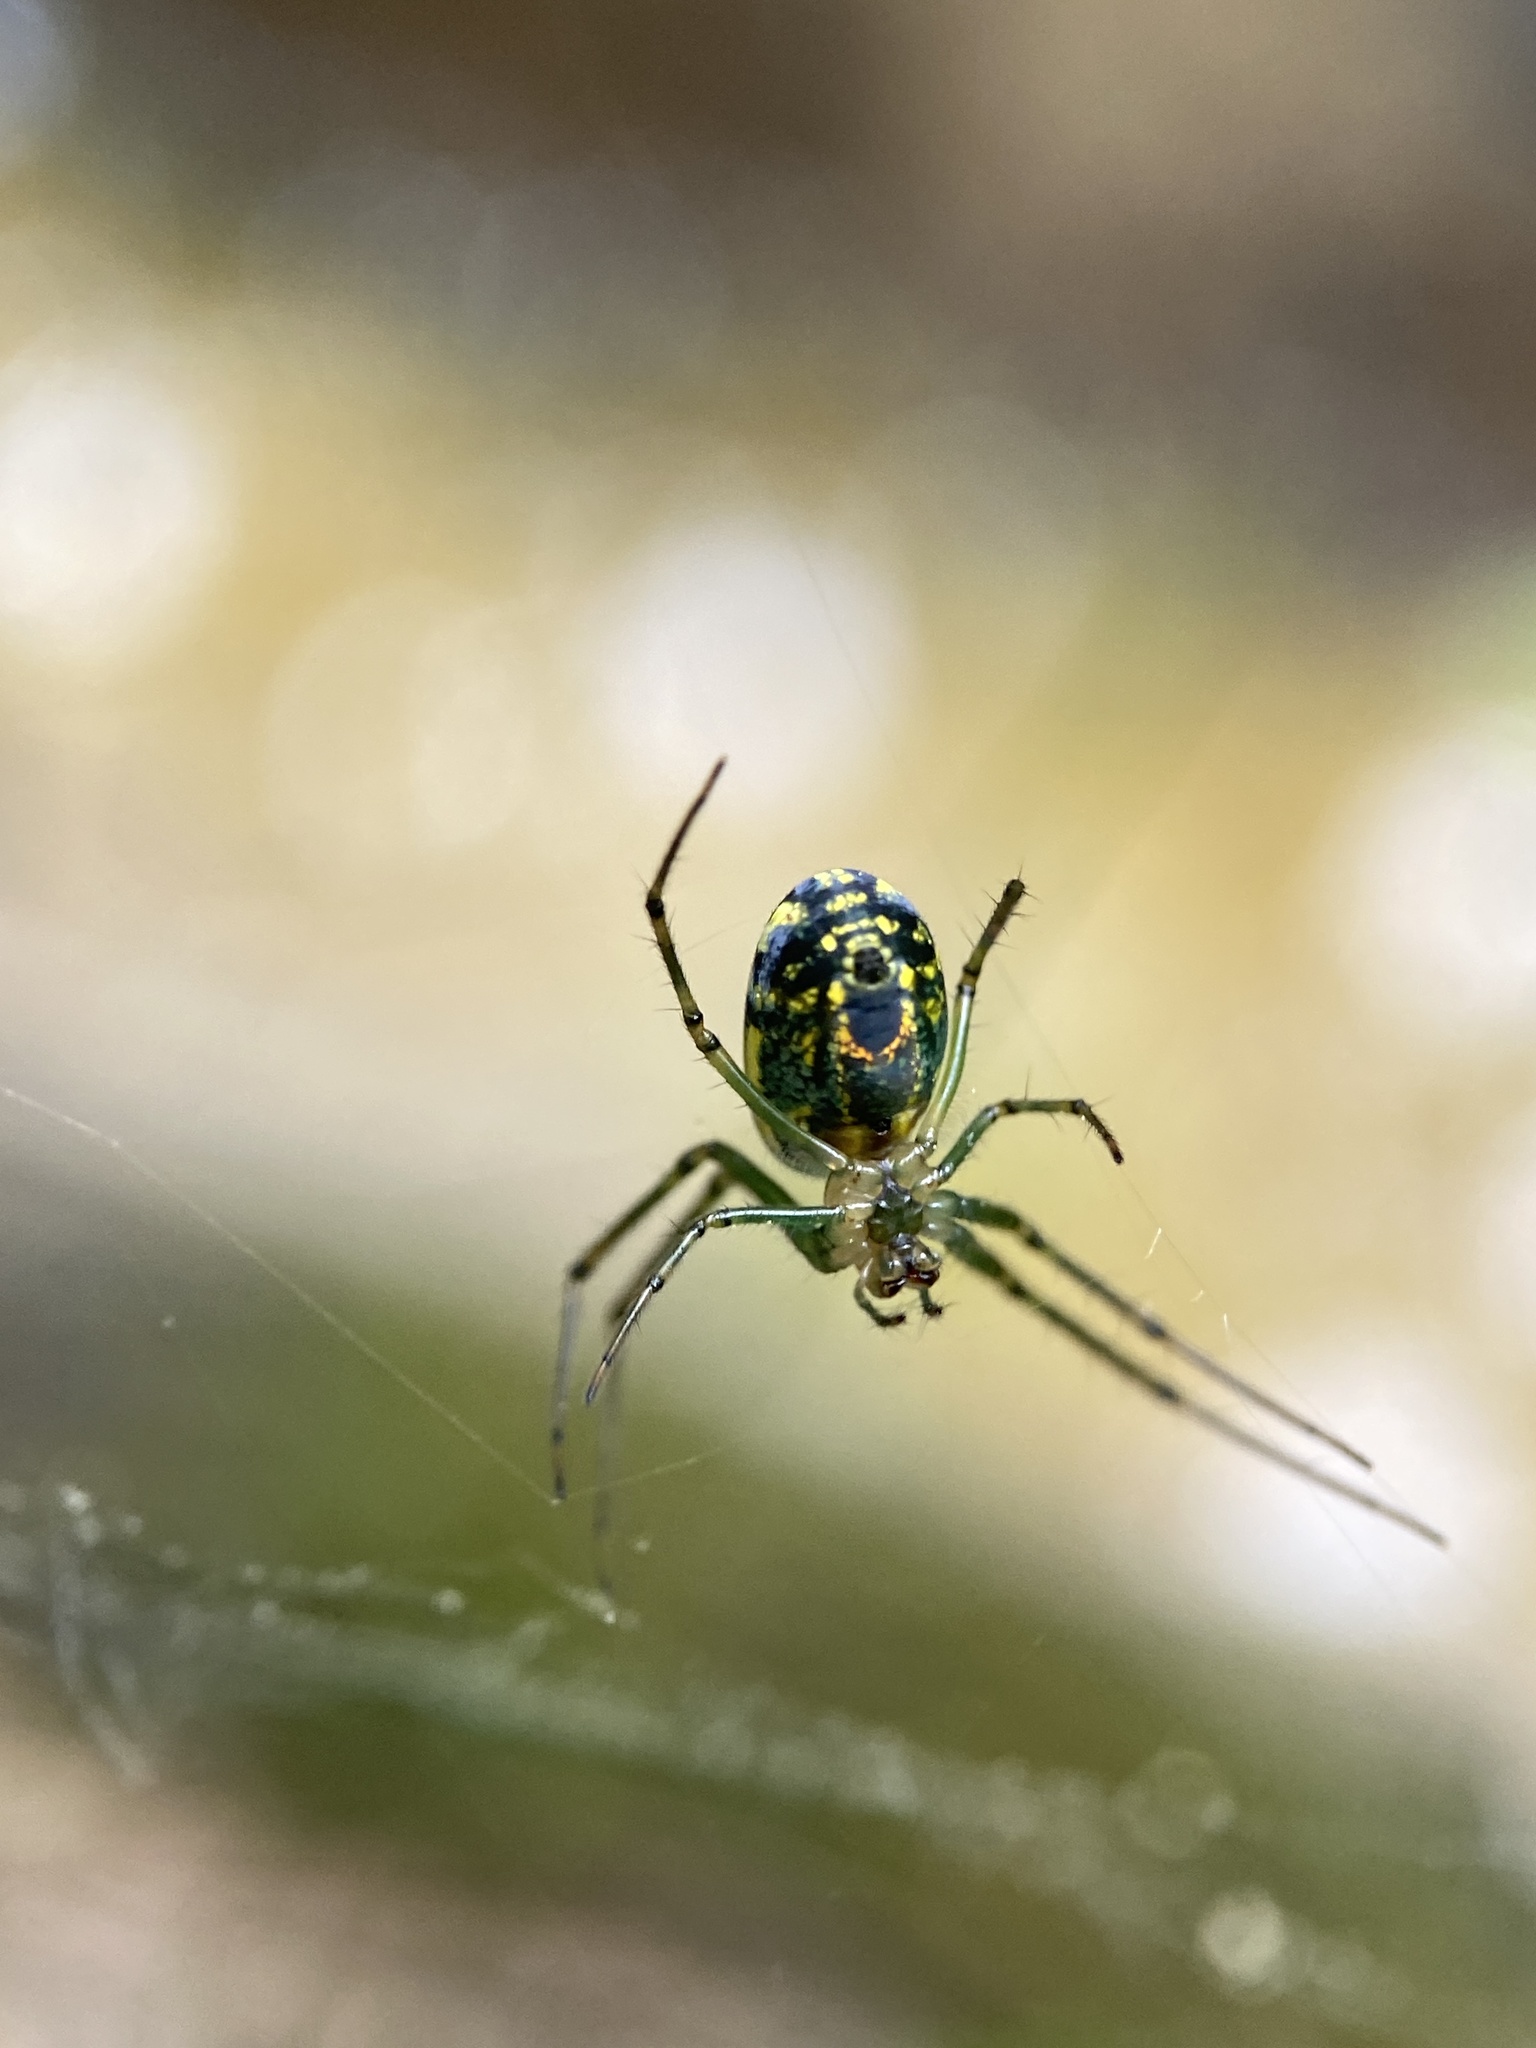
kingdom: Animalia
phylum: Arthropoda
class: Arachnida
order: Araneae
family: Tetragnathidae
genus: Leucauge
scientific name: Leucauge venusta
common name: Longjawed orb weavers
